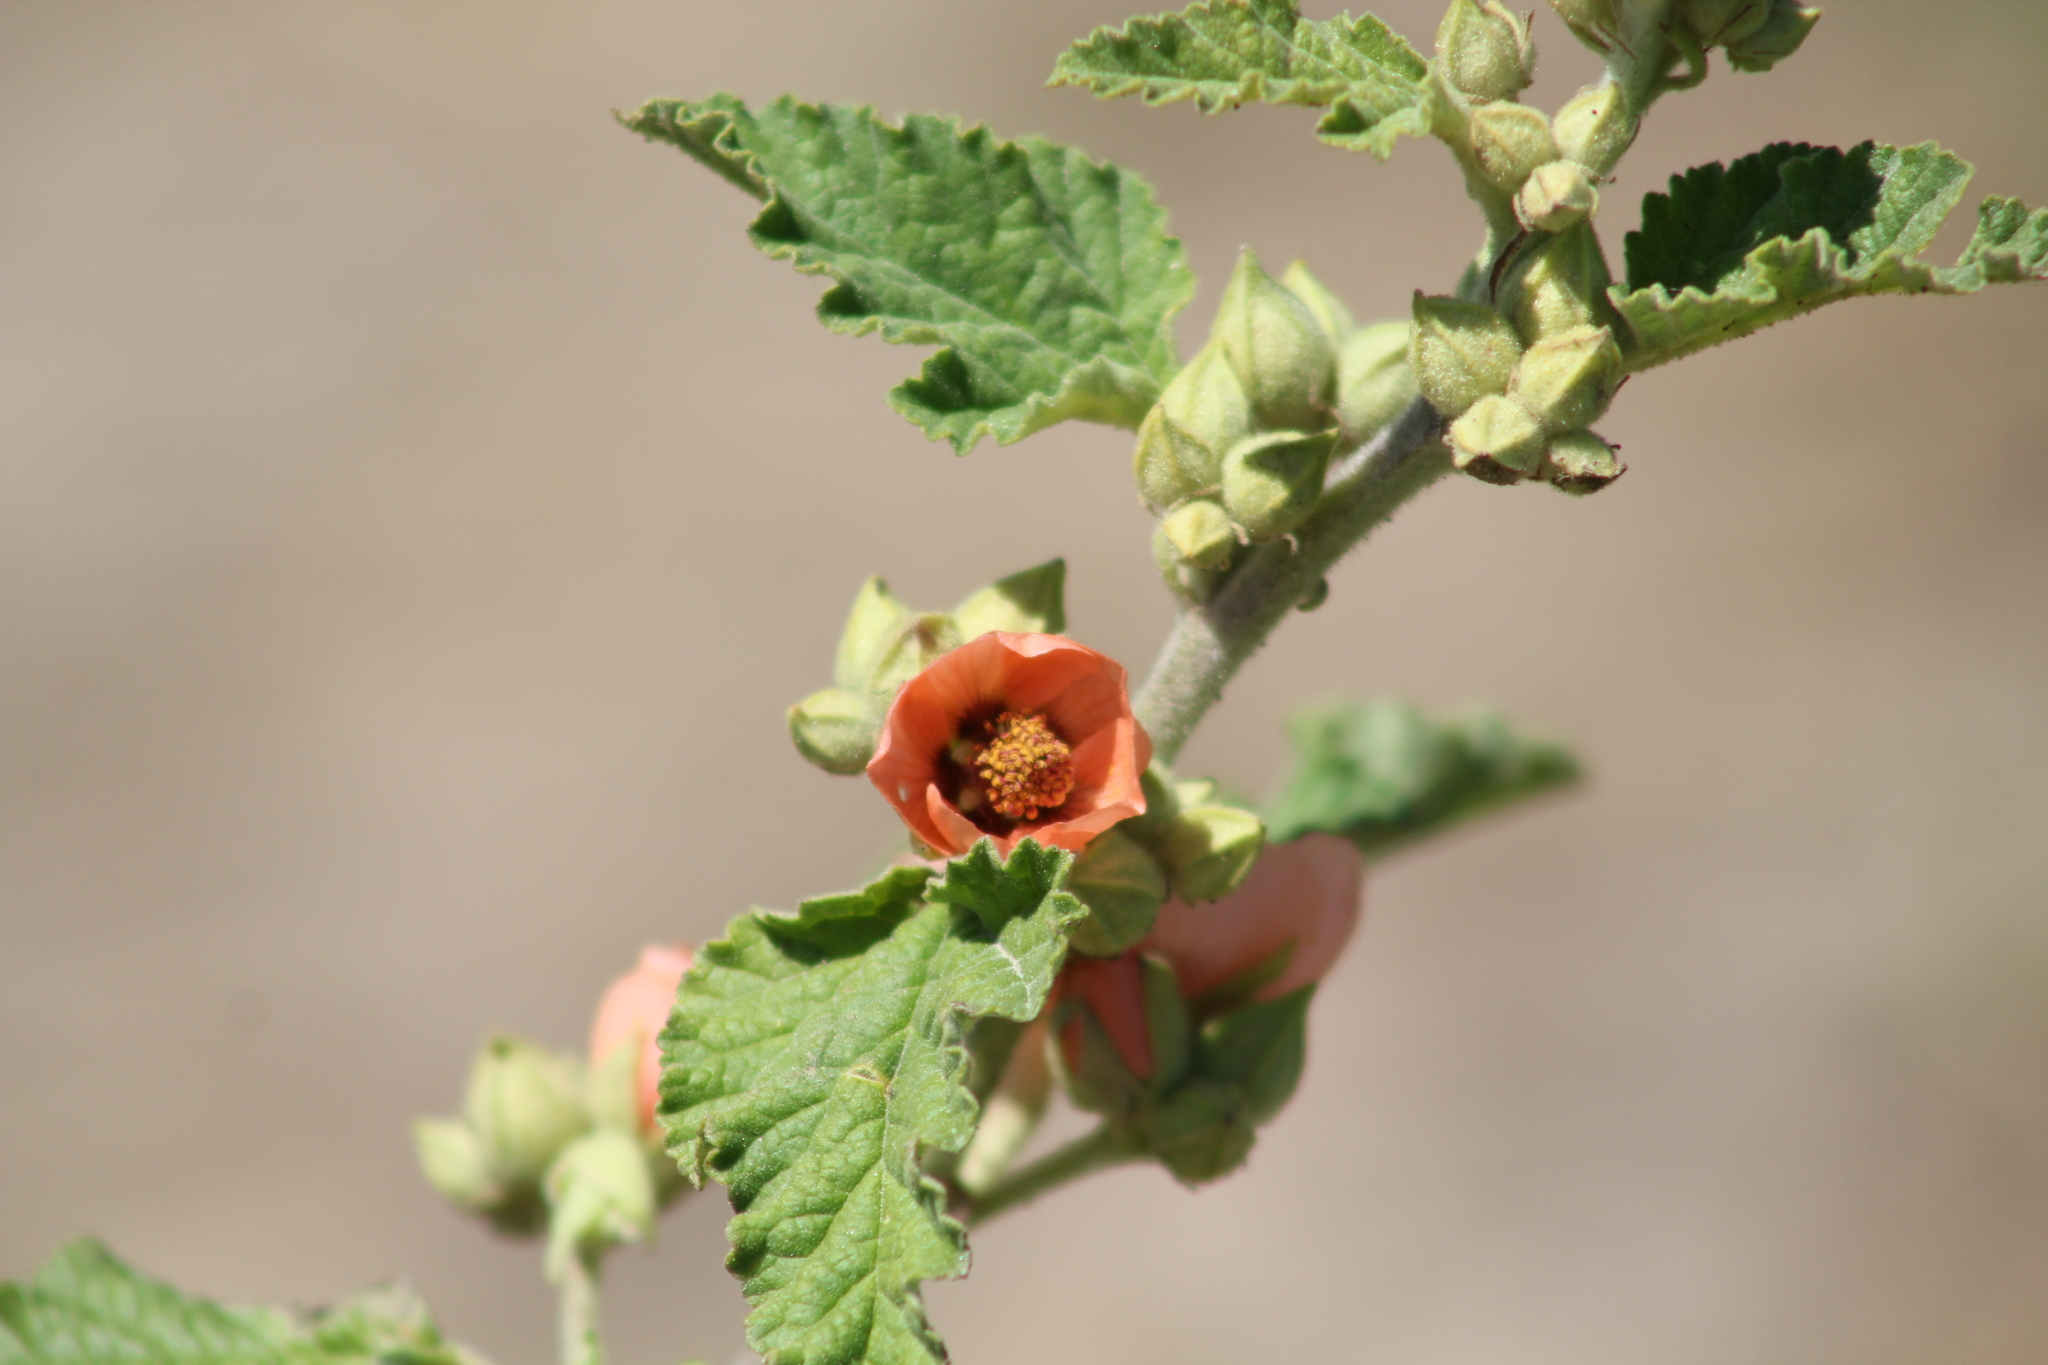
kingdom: Plantae
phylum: Tracheophyta
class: Magnoliopsida
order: Malvales
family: Malvaceae
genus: Sphaeralcea
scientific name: Sphaeralcea bonariensis
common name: Latin globemallow
